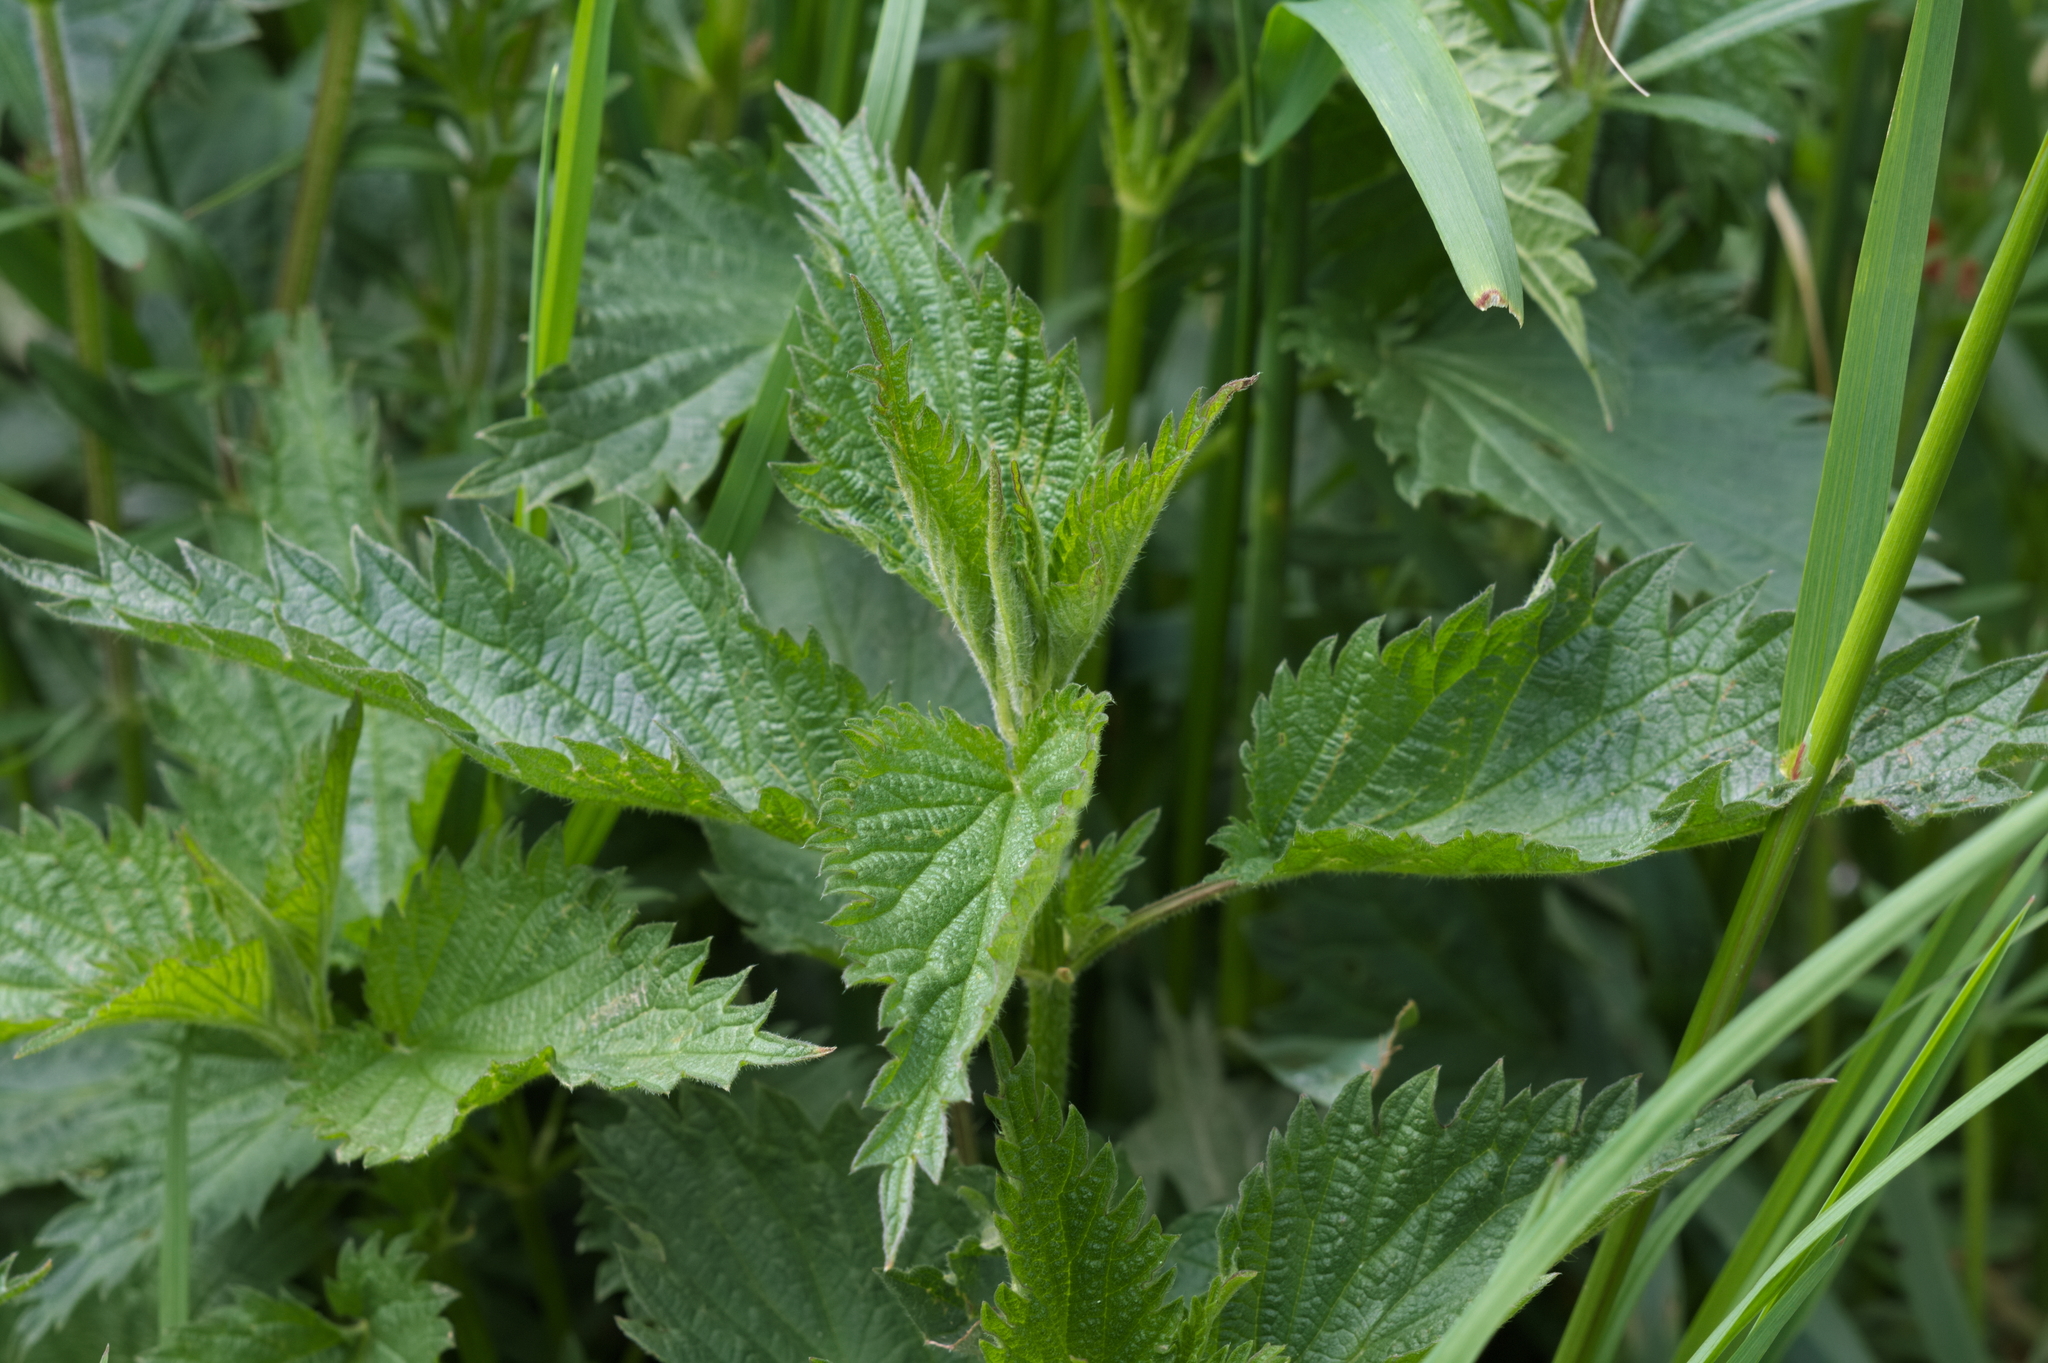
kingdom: Plantae
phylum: Tracheophyta
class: Magnoliopsida
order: Rosales
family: Urticaceae
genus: Urtica
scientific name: Urtica dioica
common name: Common nettle
